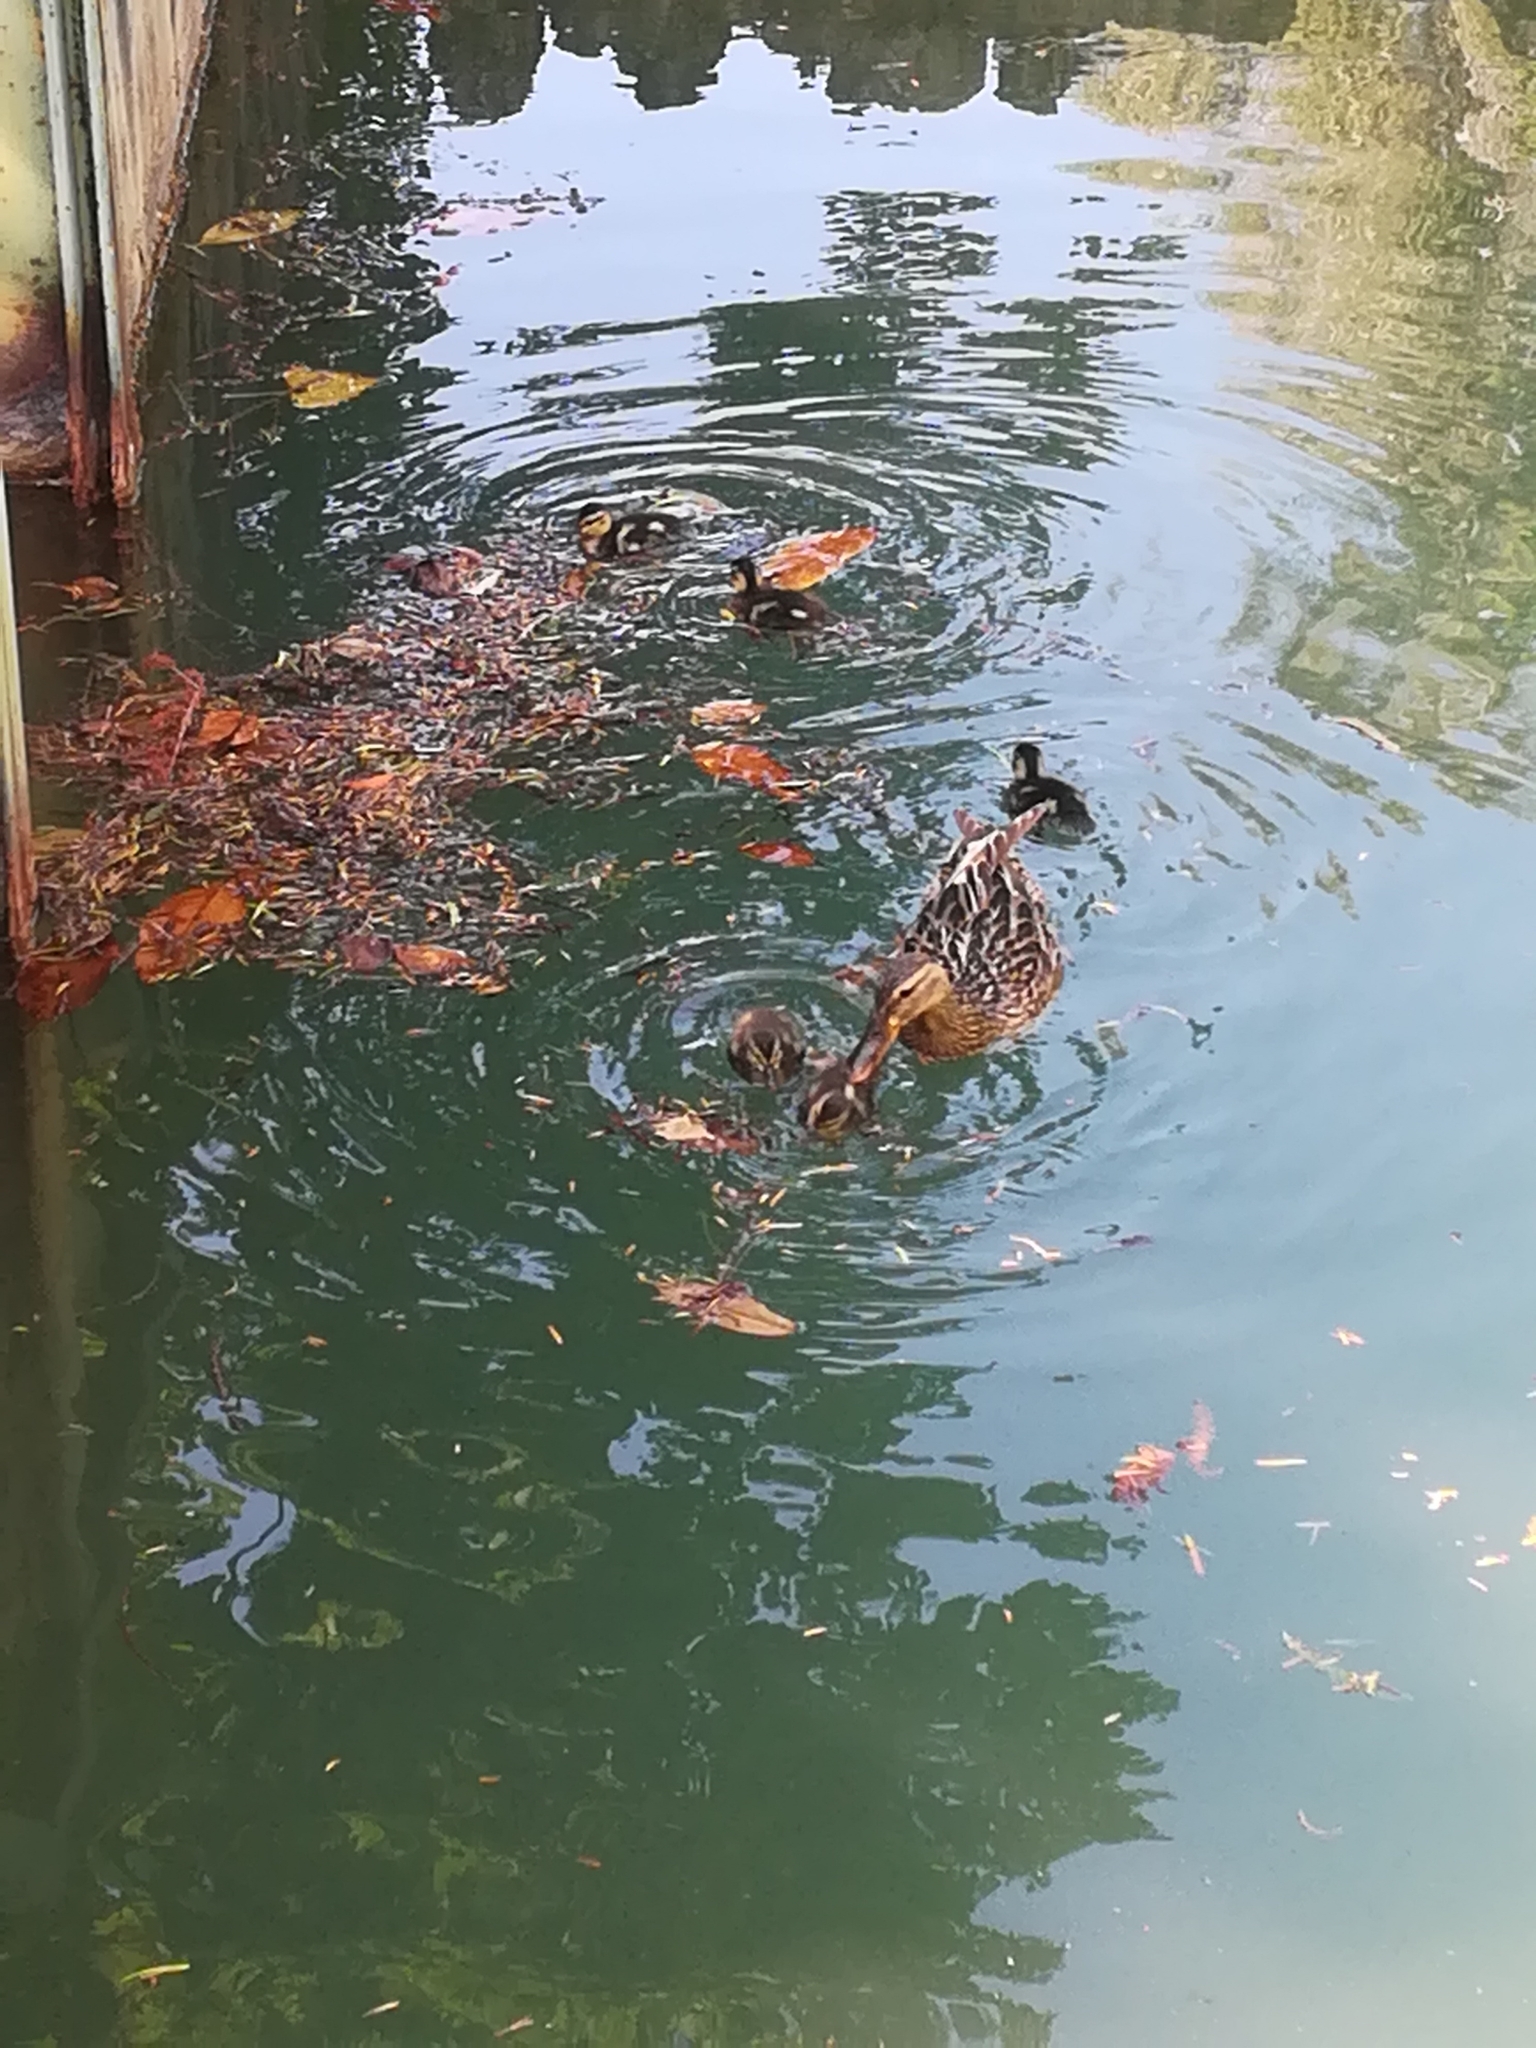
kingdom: Animalia
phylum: Chordata
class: Aves
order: Anseriformes
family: Anatidae
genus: Anas
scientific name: Anas platyrhynchos
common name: Mallard
